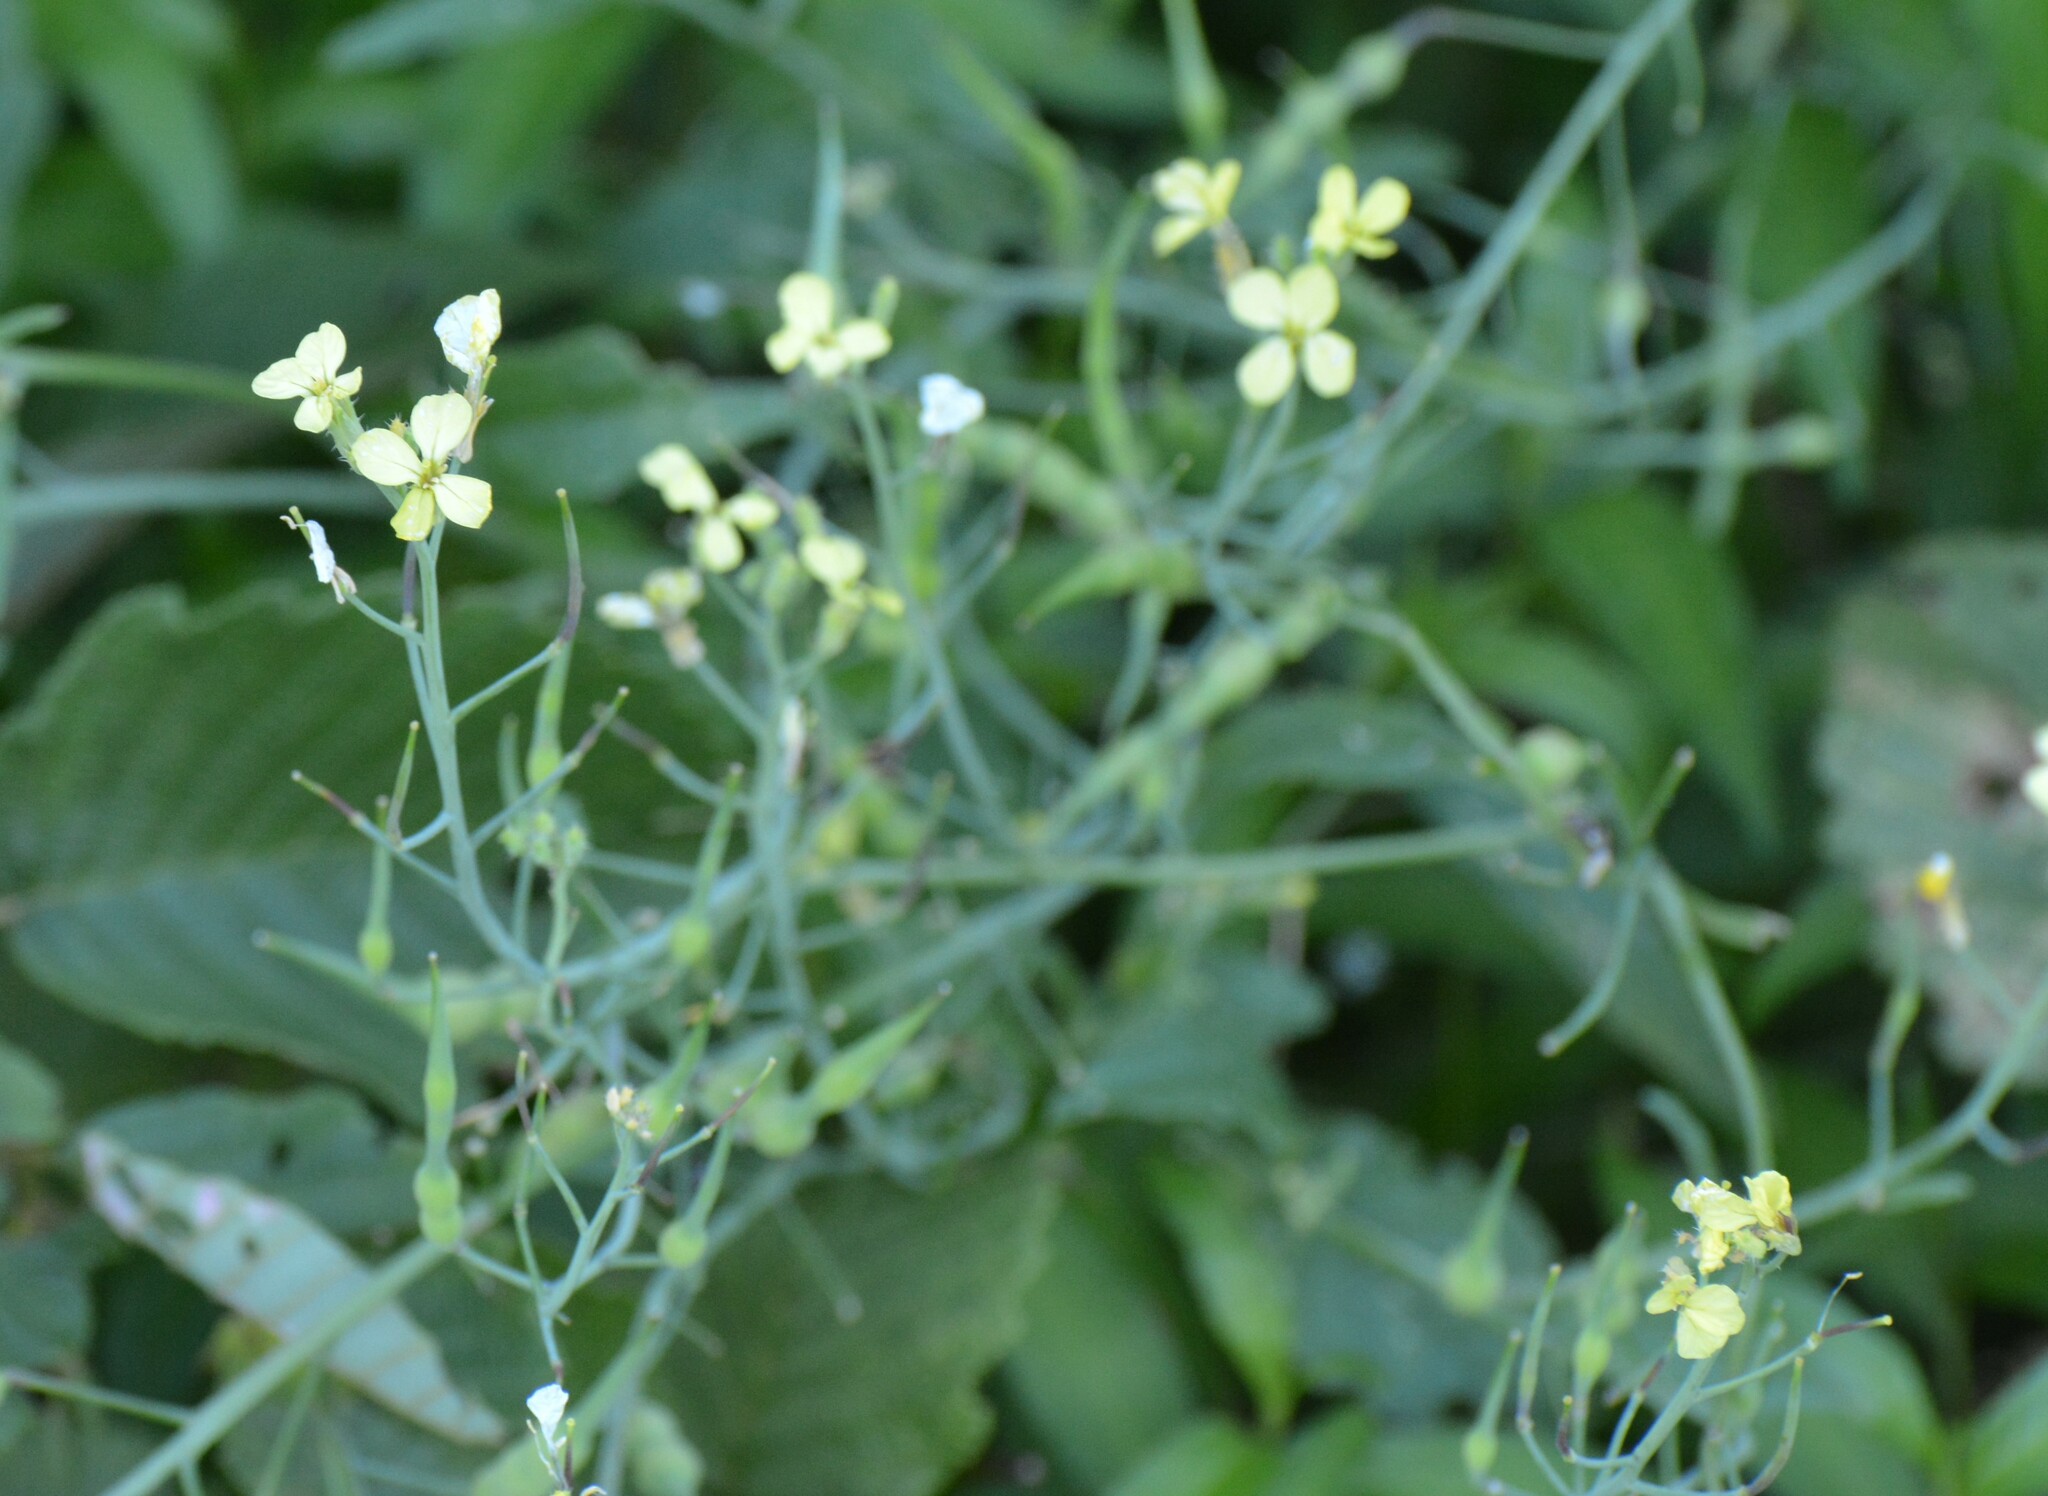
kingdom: Plantae
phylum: Tracheophyta
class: Magnoliopsida
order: Brassicales
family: Brassicaceae
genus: Raphanus
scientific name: Raphanus raphanistrum
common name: Wild radish
